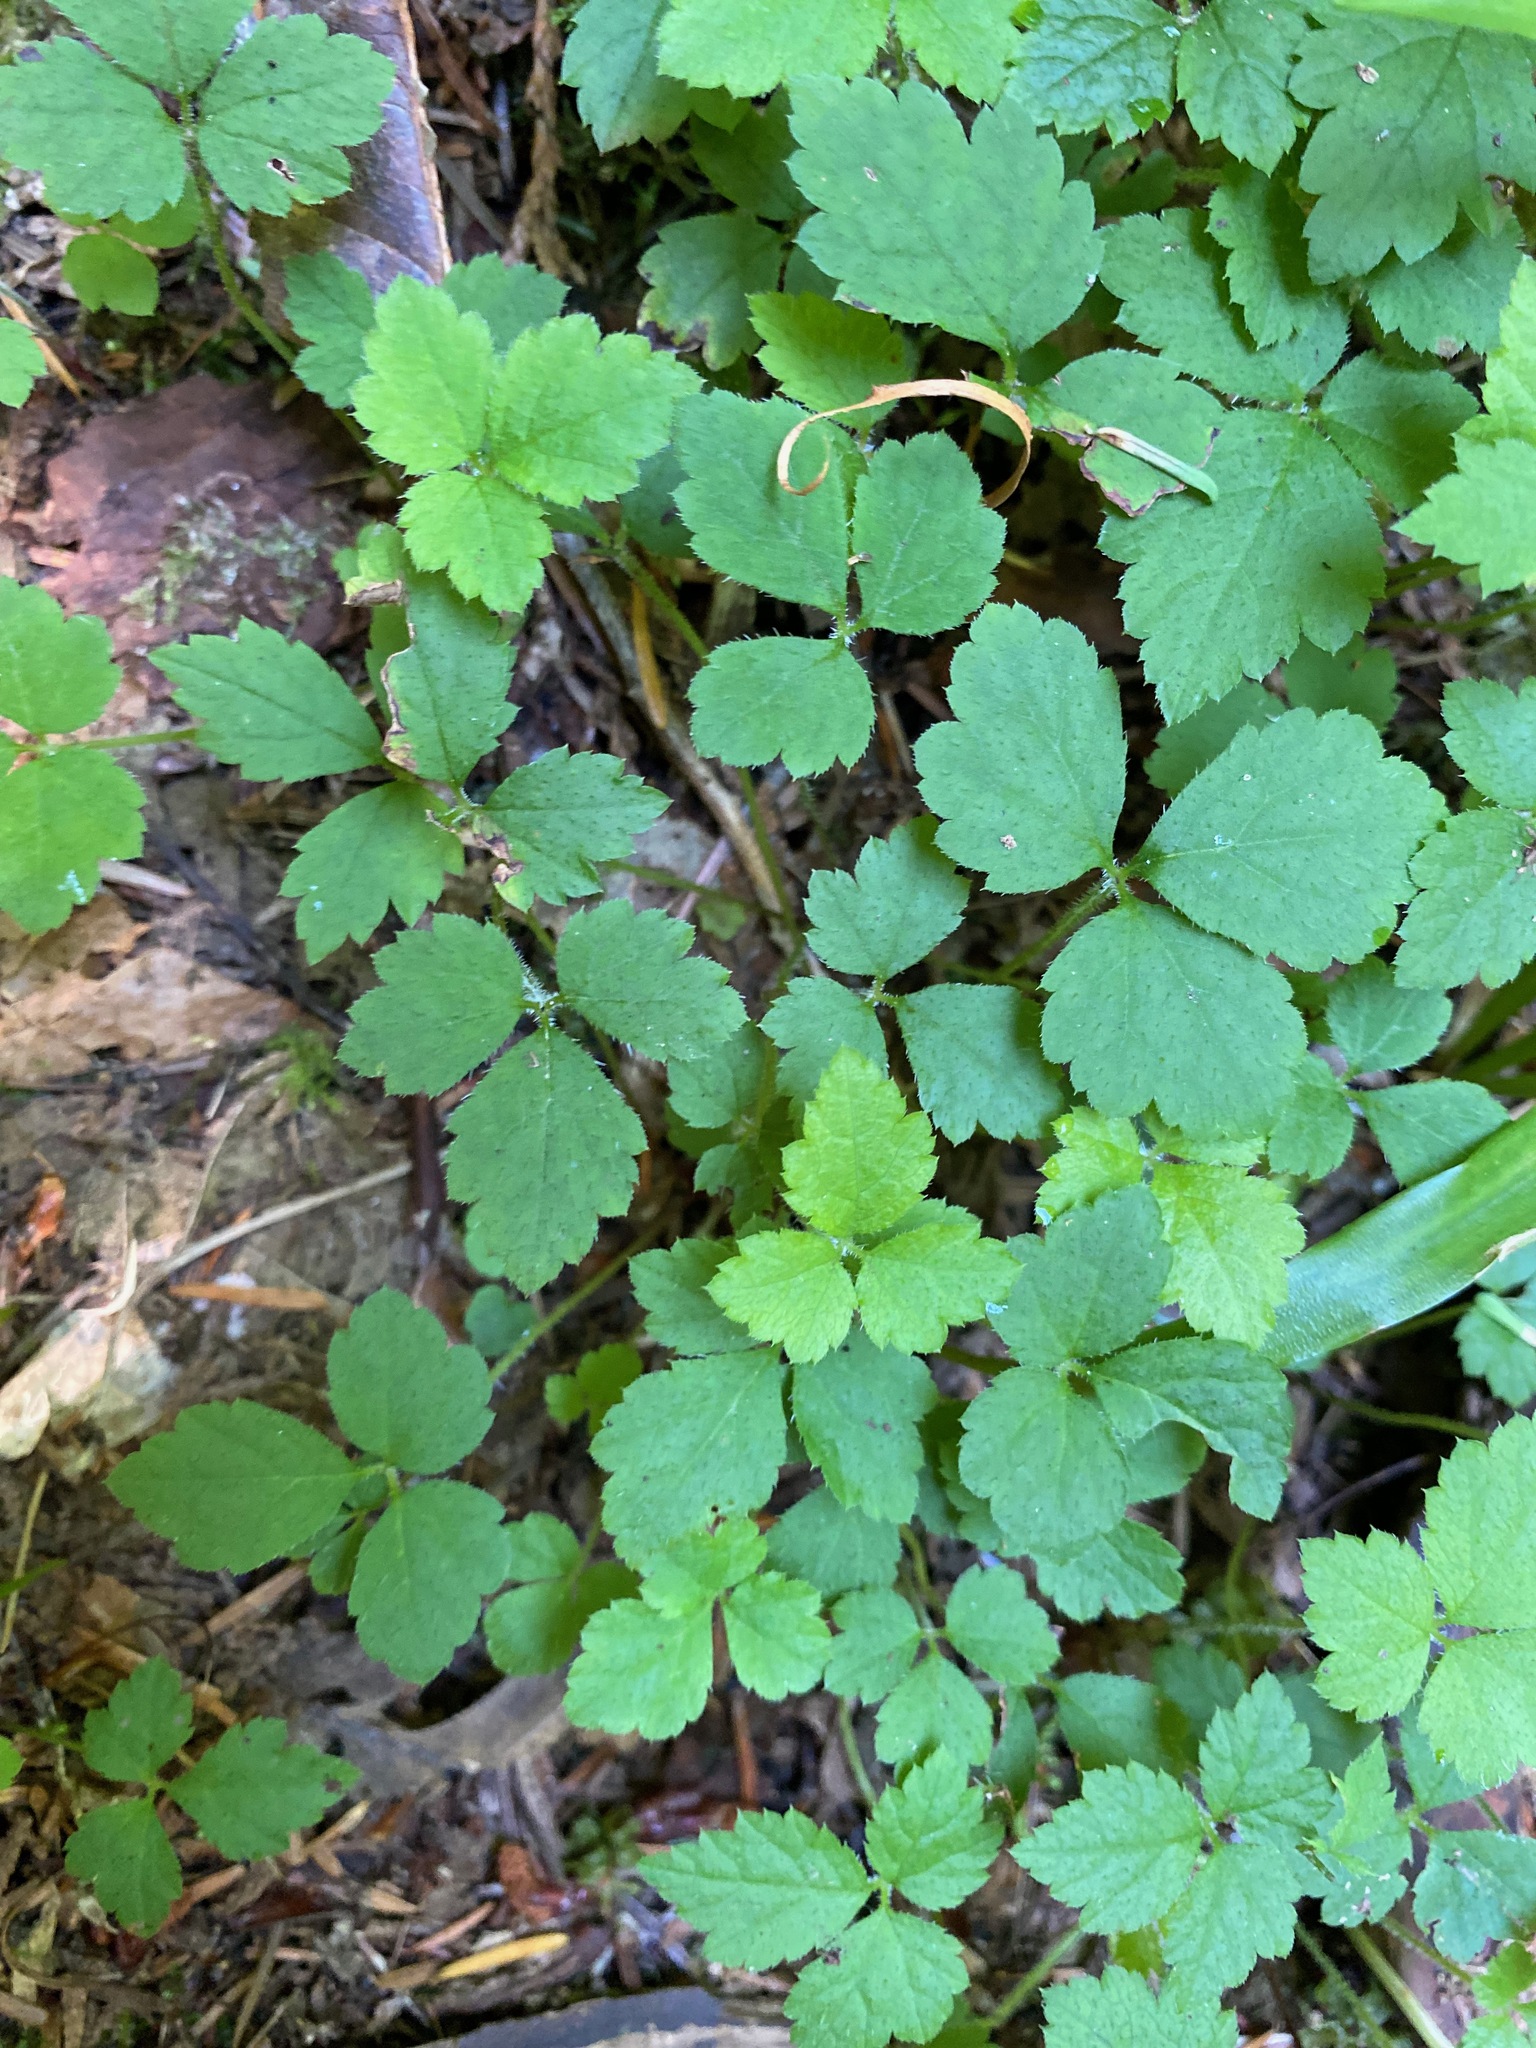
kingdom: Plantae
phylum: Tracheophyta
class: Magnoliopsida
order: Saxifragales
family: Saxifragaceae
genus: Tiarella
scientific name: Tiarella trifoliata
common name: Sugar-scoop
